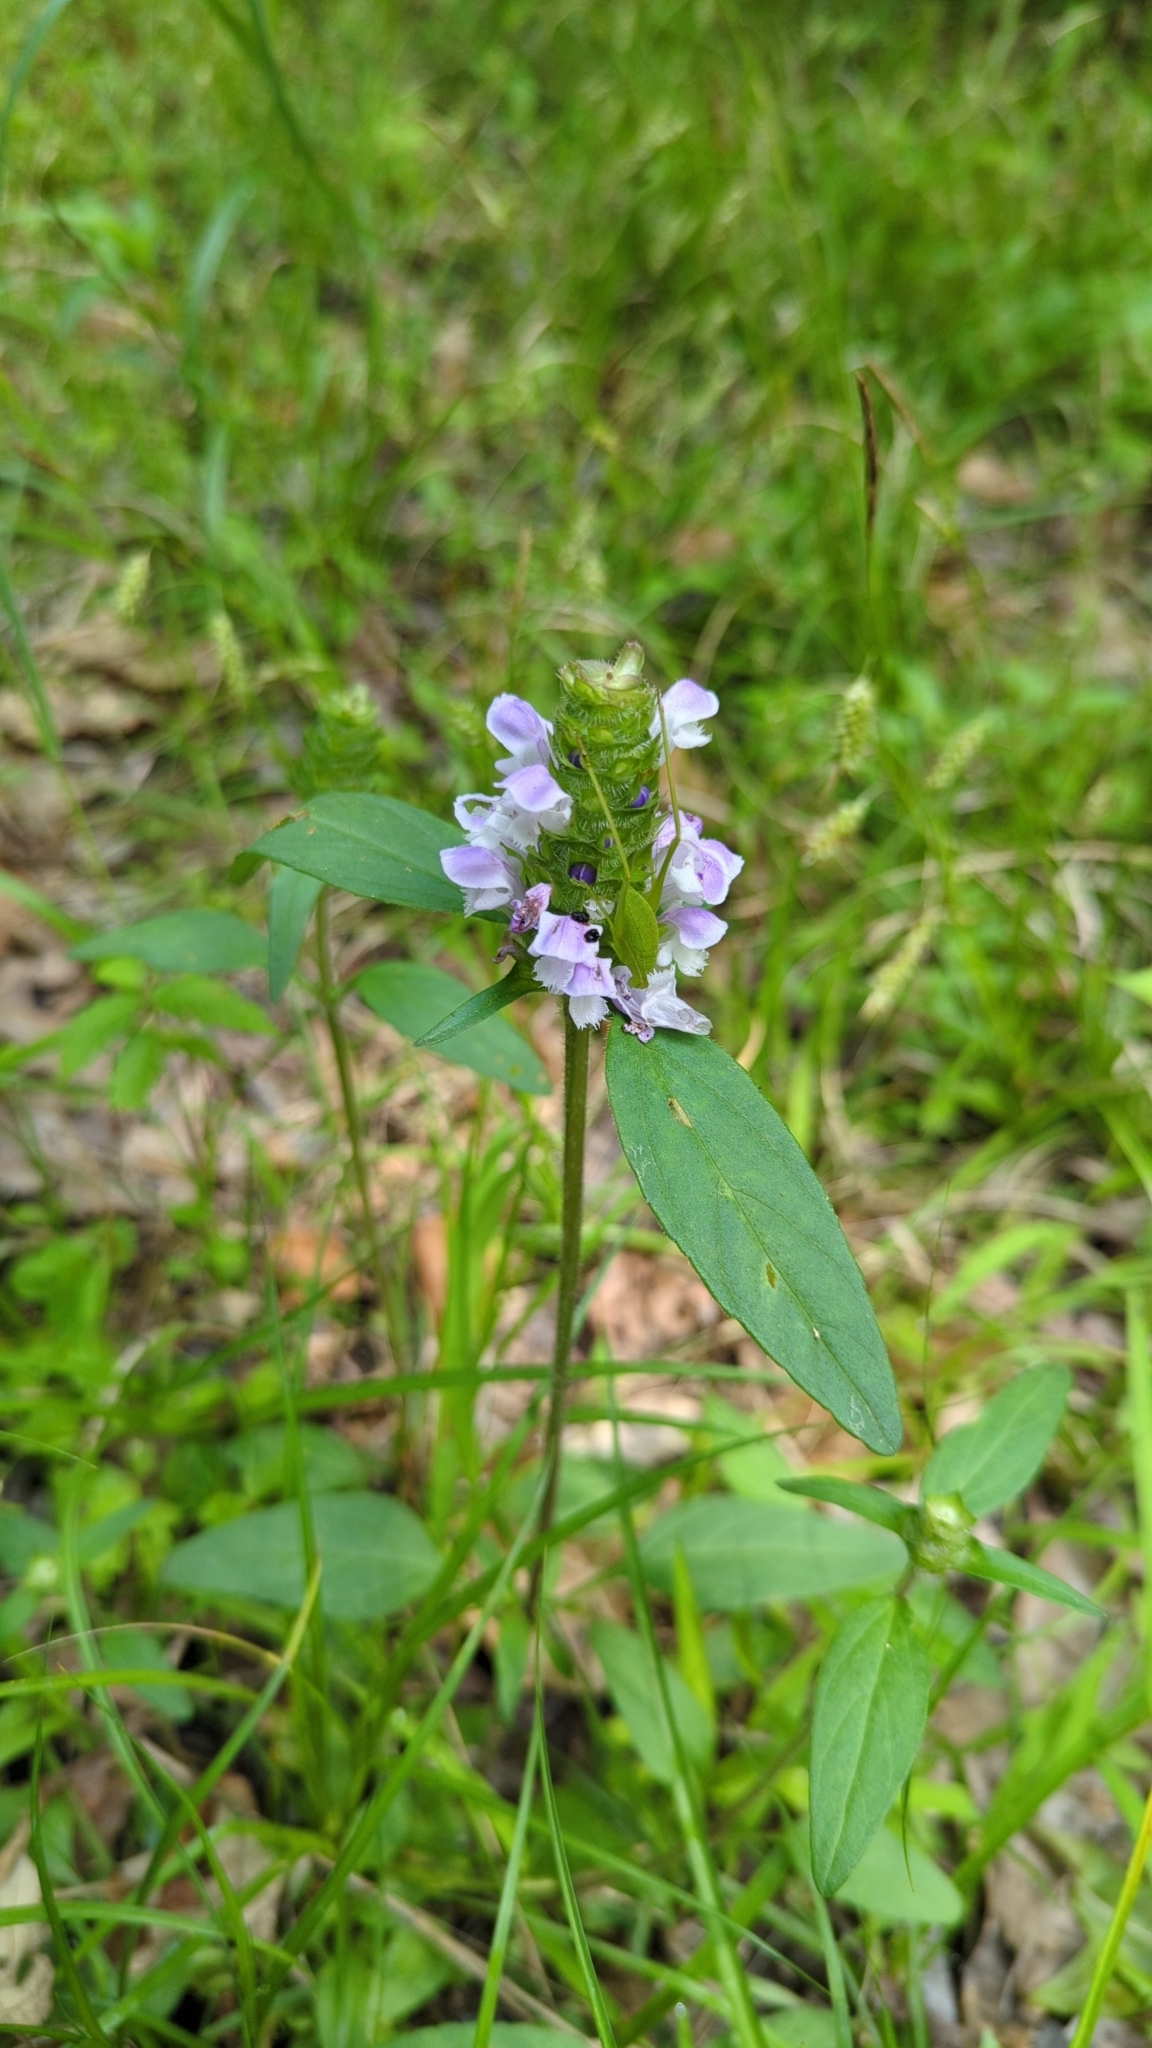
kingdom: Plantae
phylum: Tracheophyta
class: Magnoliopsida
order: Lamiales
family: Lamiaceae
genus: Prunella
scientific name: Prunella vulgaris
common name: Heal-all
